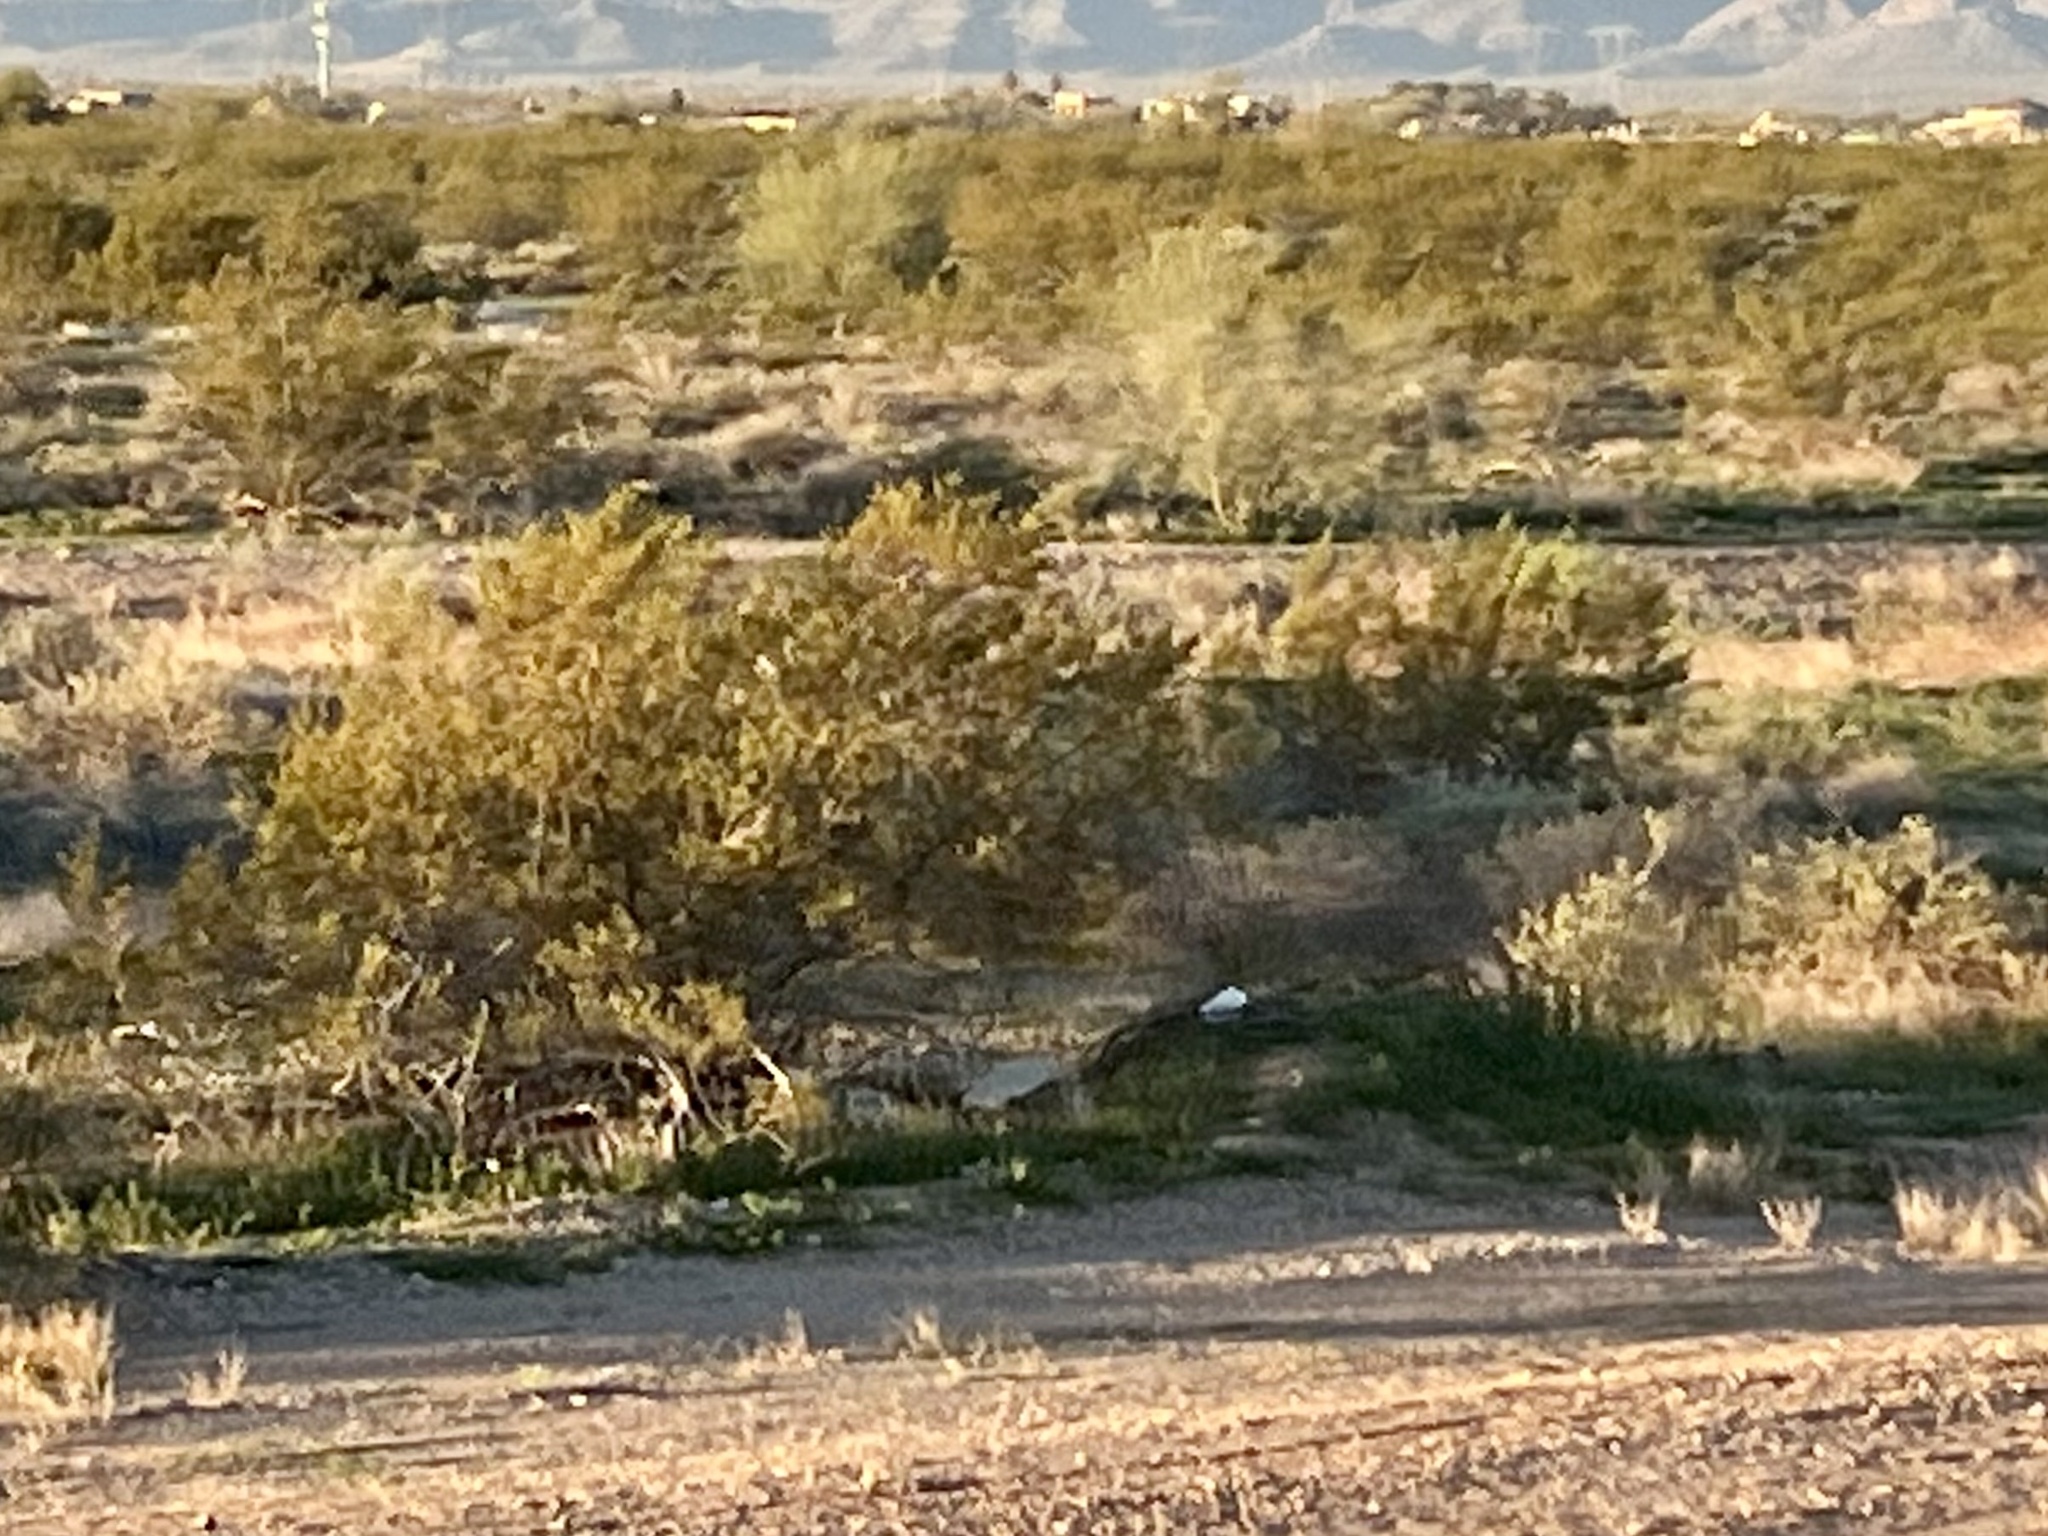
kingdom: Plantae
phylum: Tracheophyta
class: Magnoliopsida
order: Zygophyllales
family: Zygophyllaceae
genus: Larrea
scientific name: Larrea tridentata
